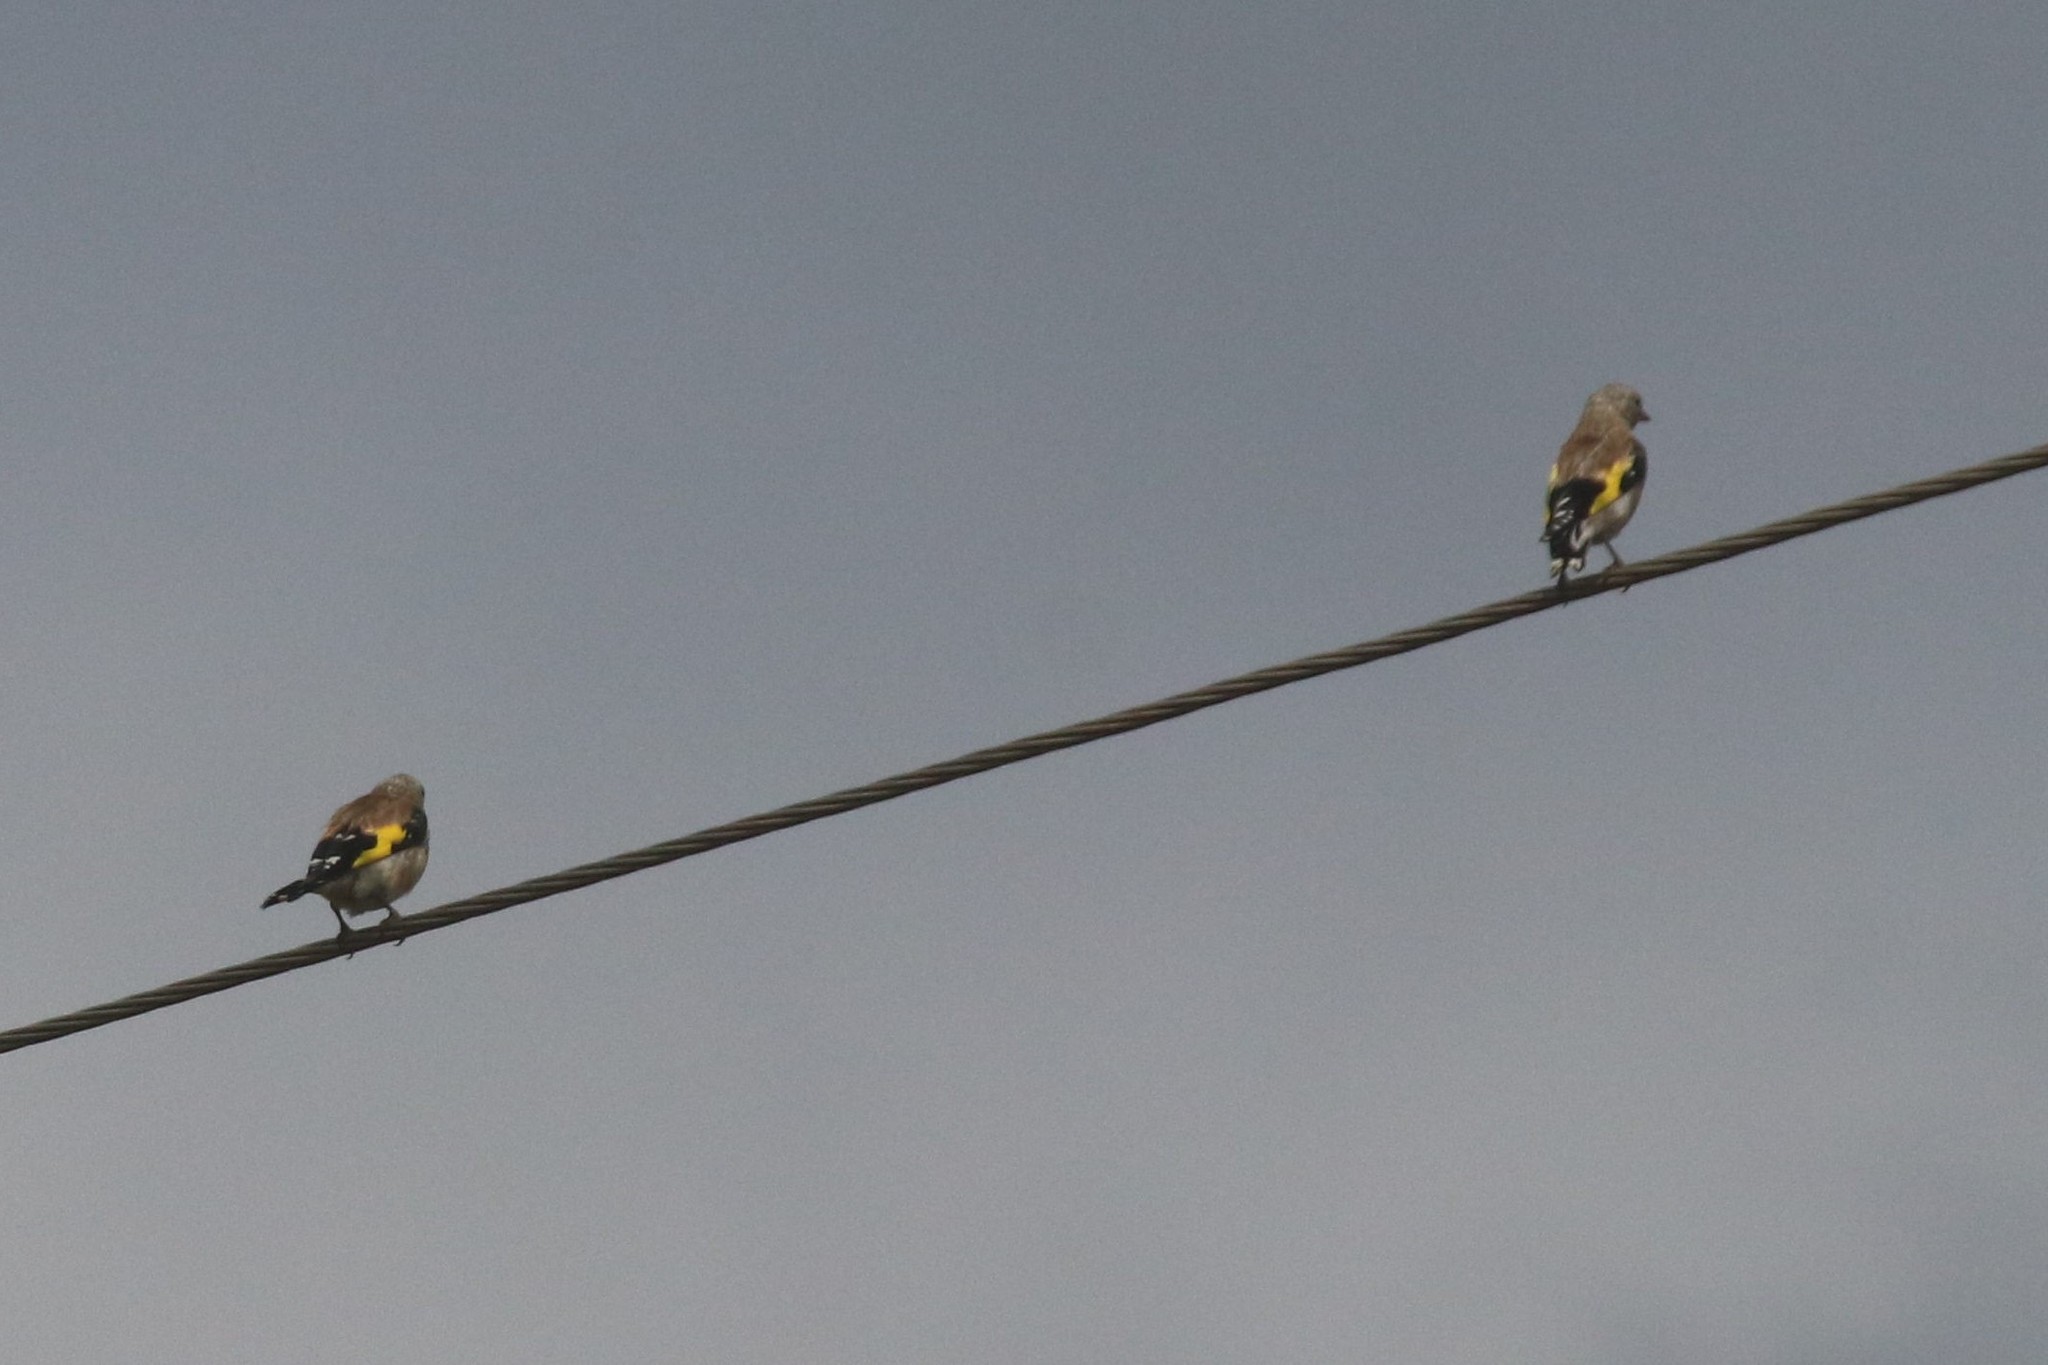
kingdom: Animalia
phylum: Chordata
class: Aves
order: Passeriformes
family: Fringillidae
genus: Carduelis
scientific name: Carduelis carduelis
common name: European goldfinch
